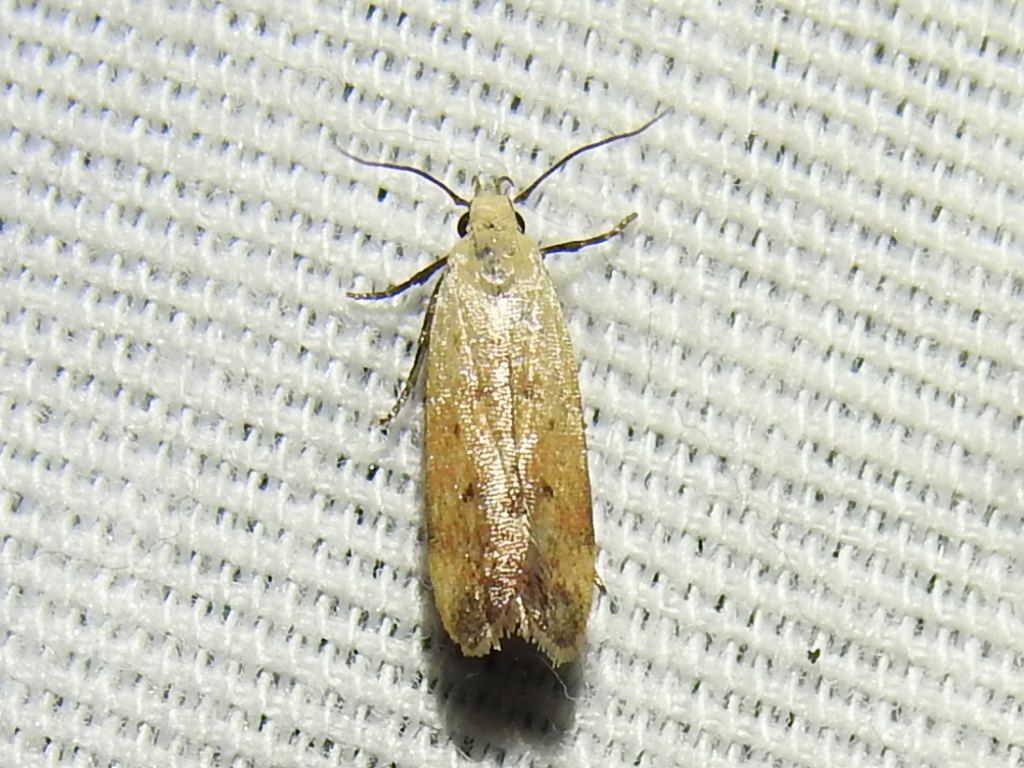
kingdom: Animalia
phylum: Arthropoda
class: Insecta
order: Lepidoptera
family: Gelechiidae
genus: Anacampsis
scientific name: Anacampsis fullonella
